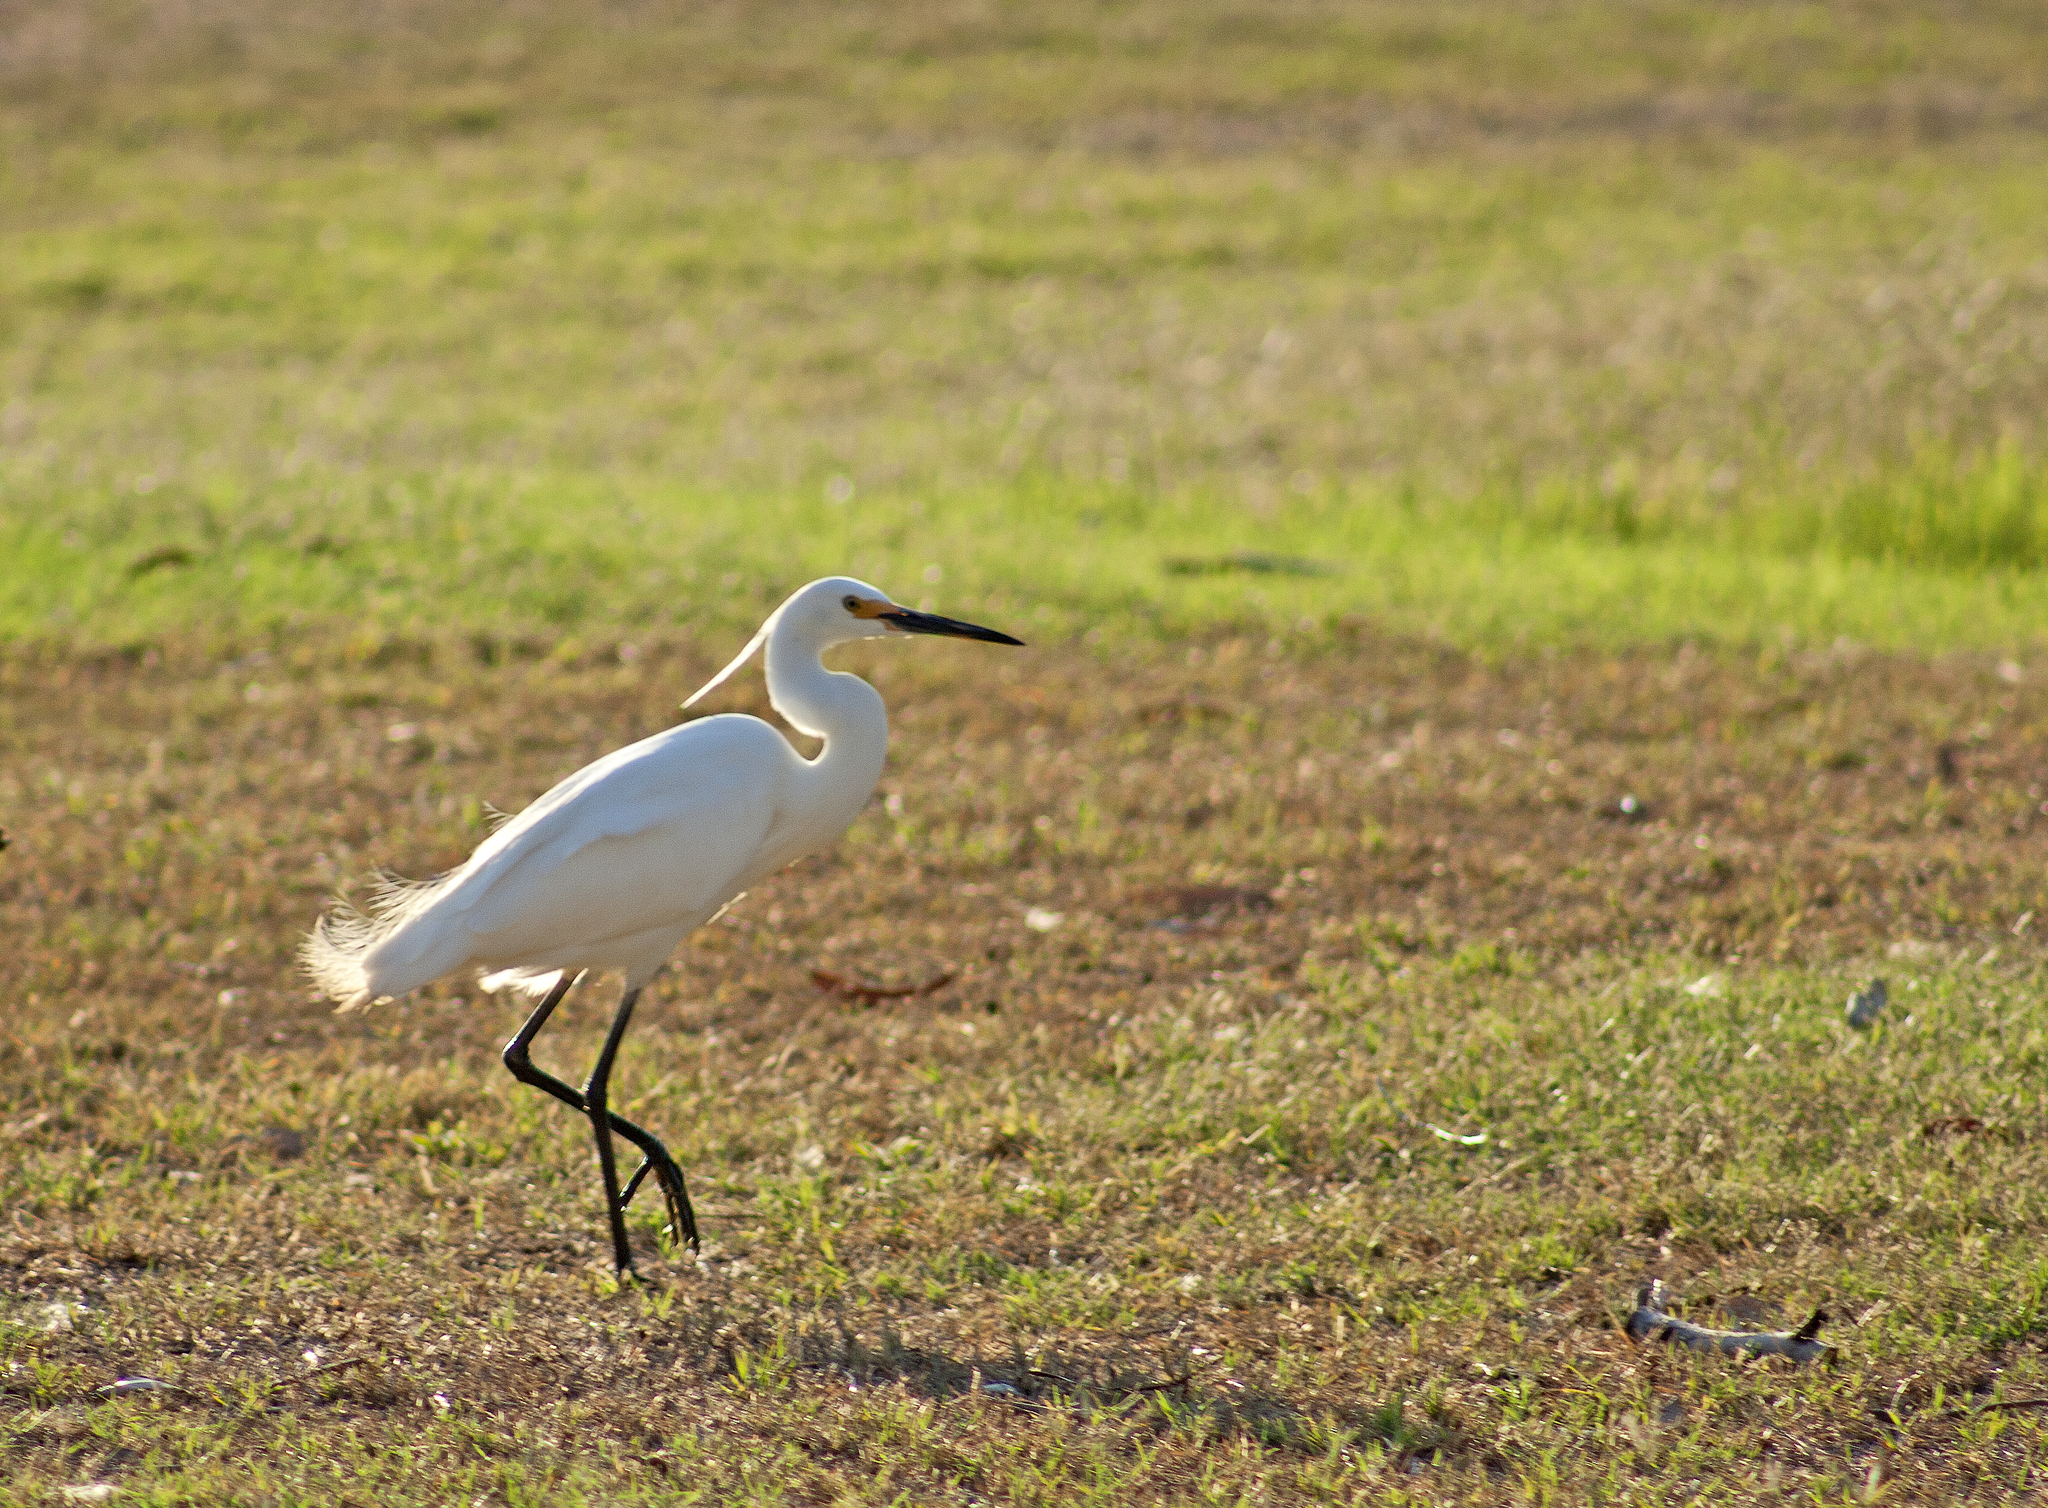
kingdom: Animalia
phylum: Chordata
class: Aves
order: Pelecaniformes
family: Ardeidae
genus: Egretta
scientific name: Egretta garzetta
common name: Little egret
